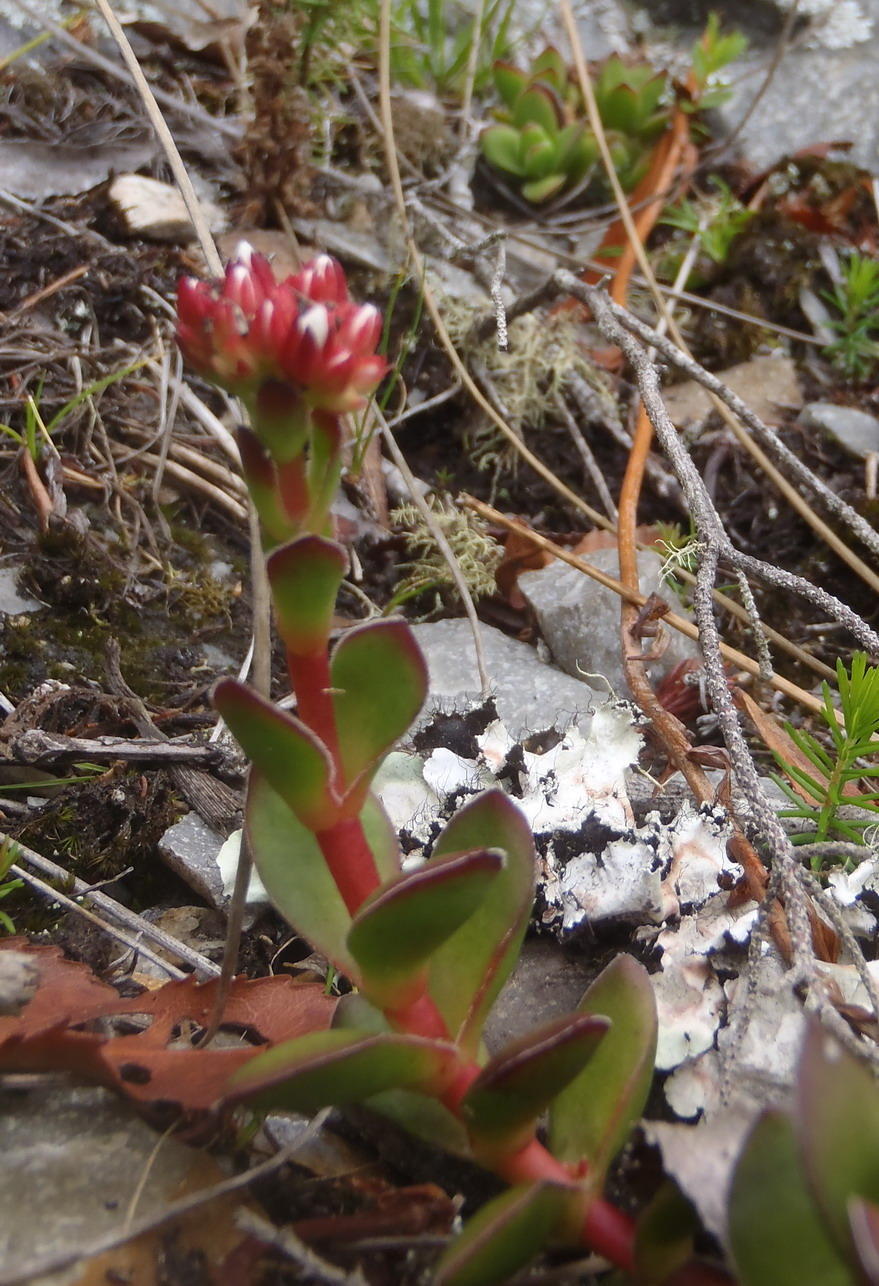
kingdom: Plantae
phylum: Tracheophyta
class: Magnoliopsida
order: Saxifragales
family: Crassulaceae
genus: Crassula
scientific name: Crassula rubricaulis
